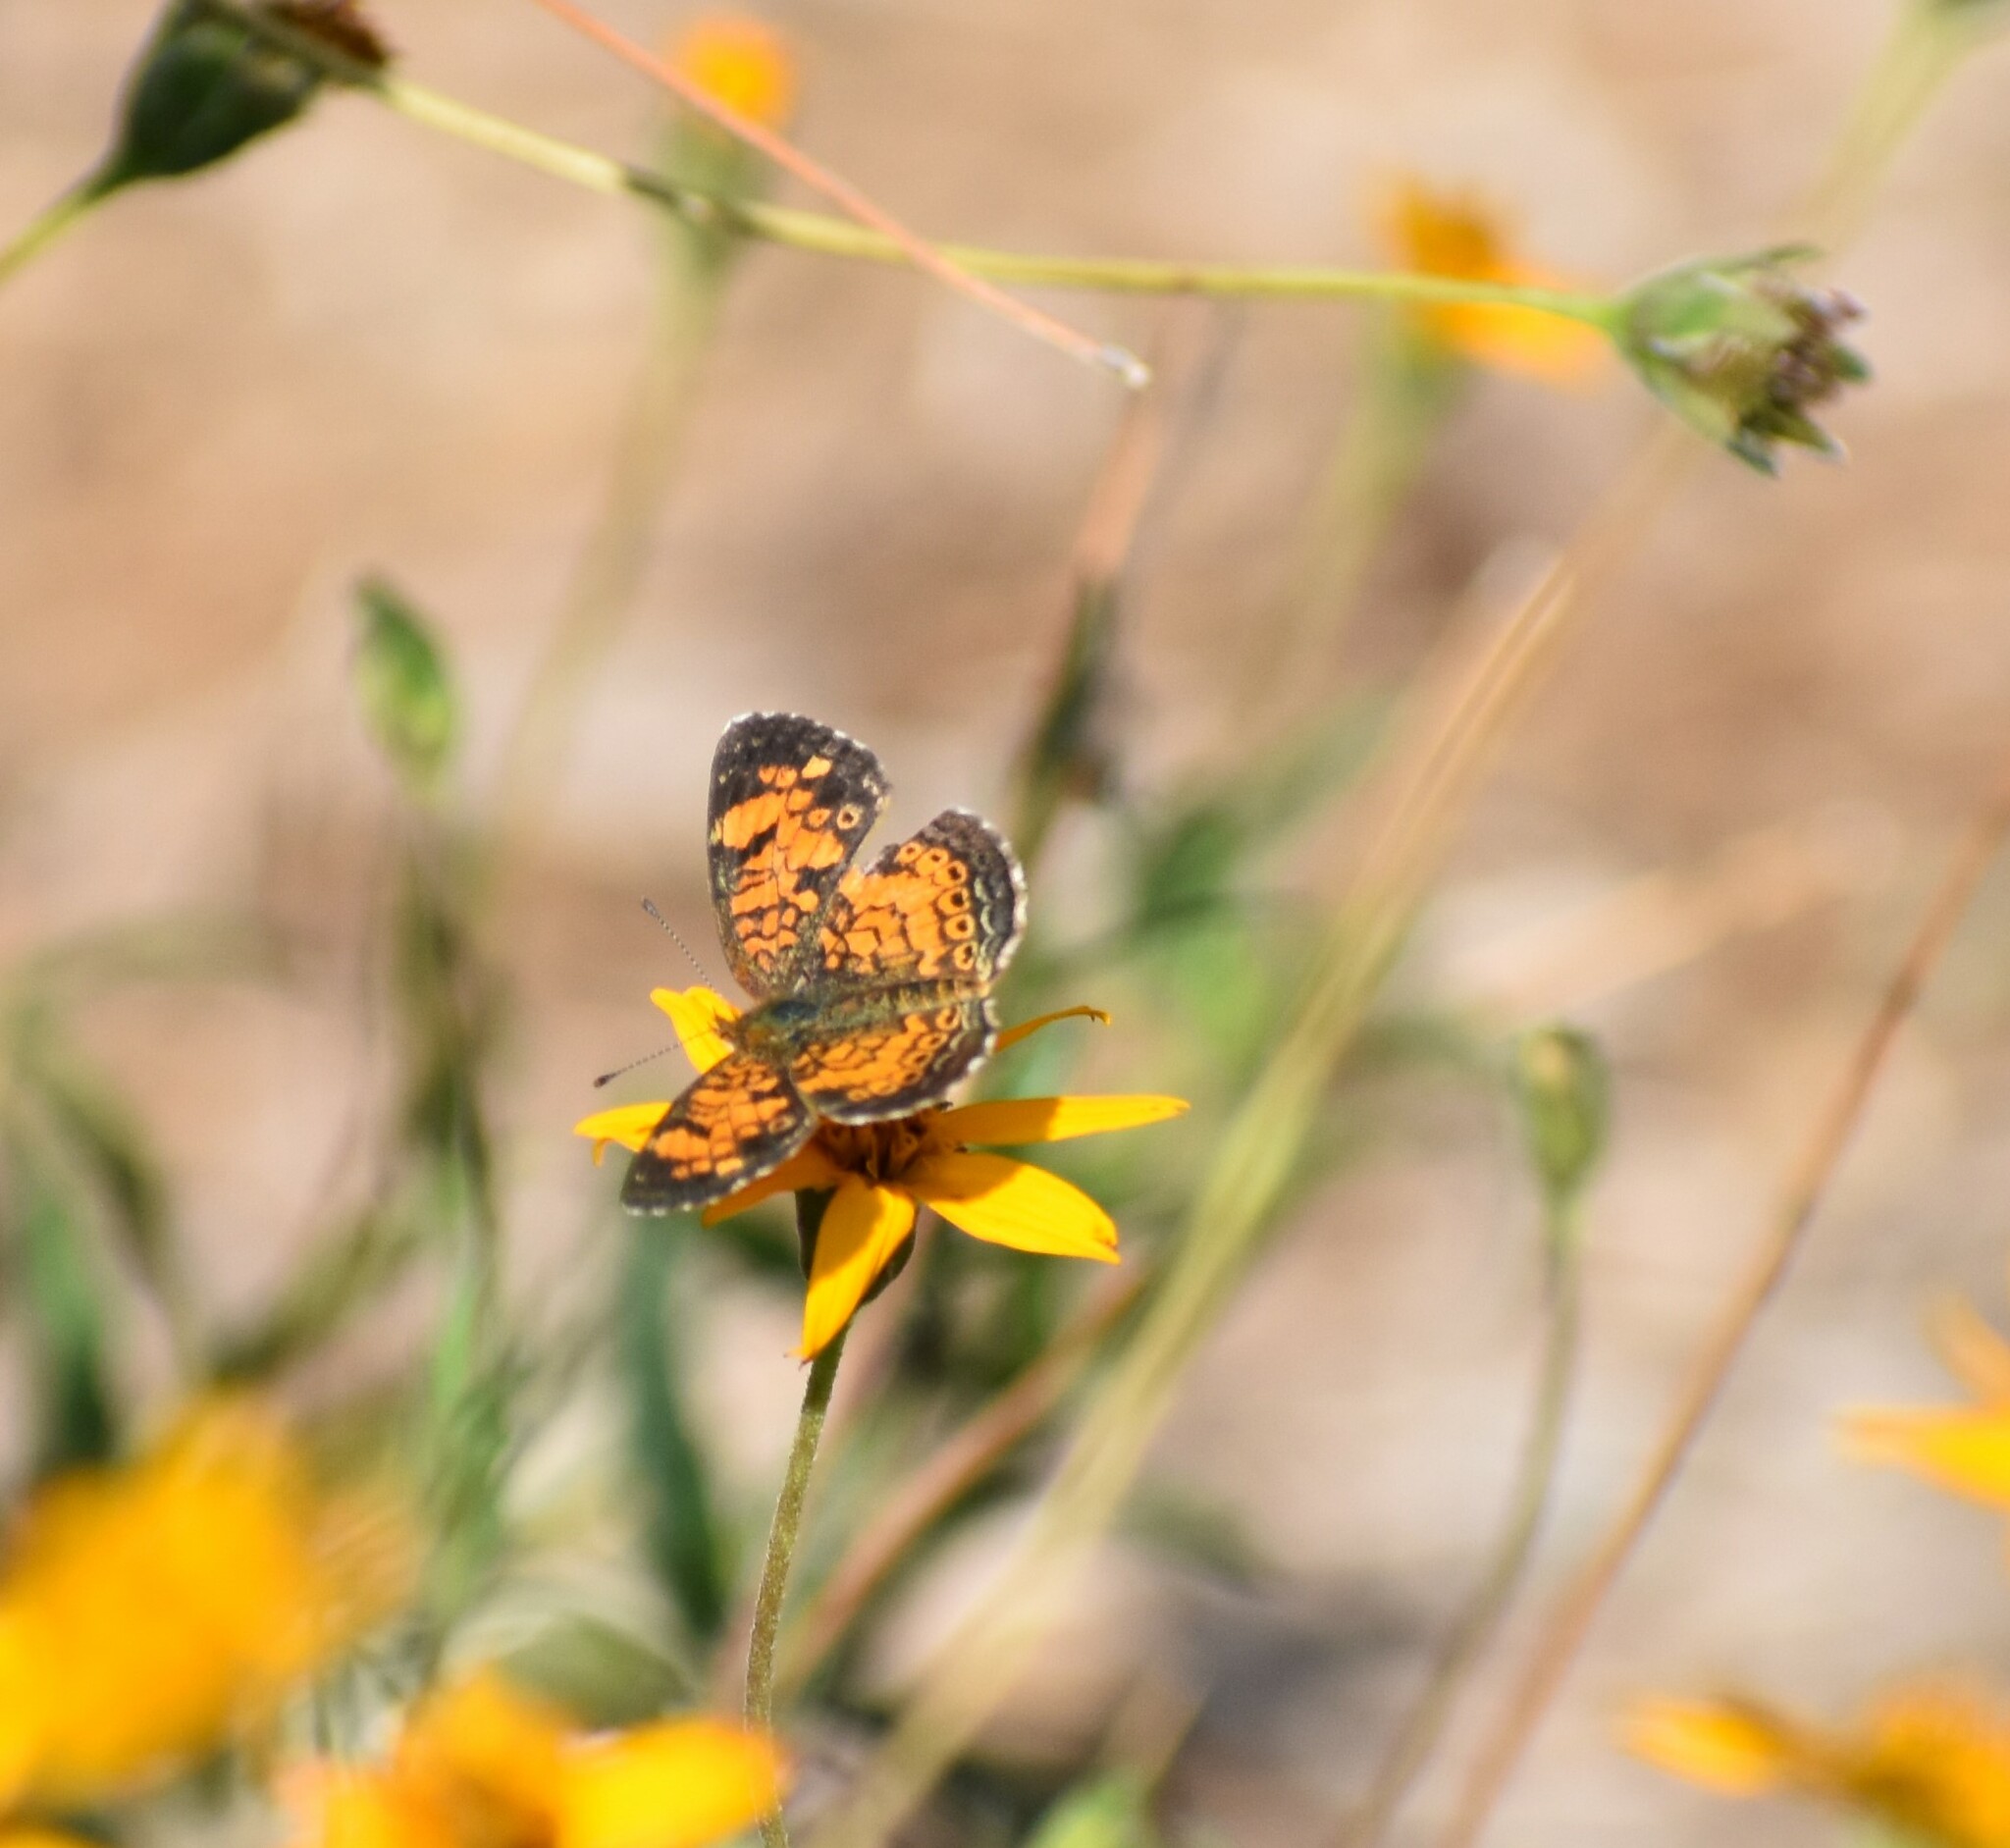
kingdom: Animalia
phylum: Arthropoda
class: Insecta
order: Lepidoptera
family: Nymphalidae
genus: Phyciodes
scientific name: Phyciodes tharos
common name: Pearl crescent
